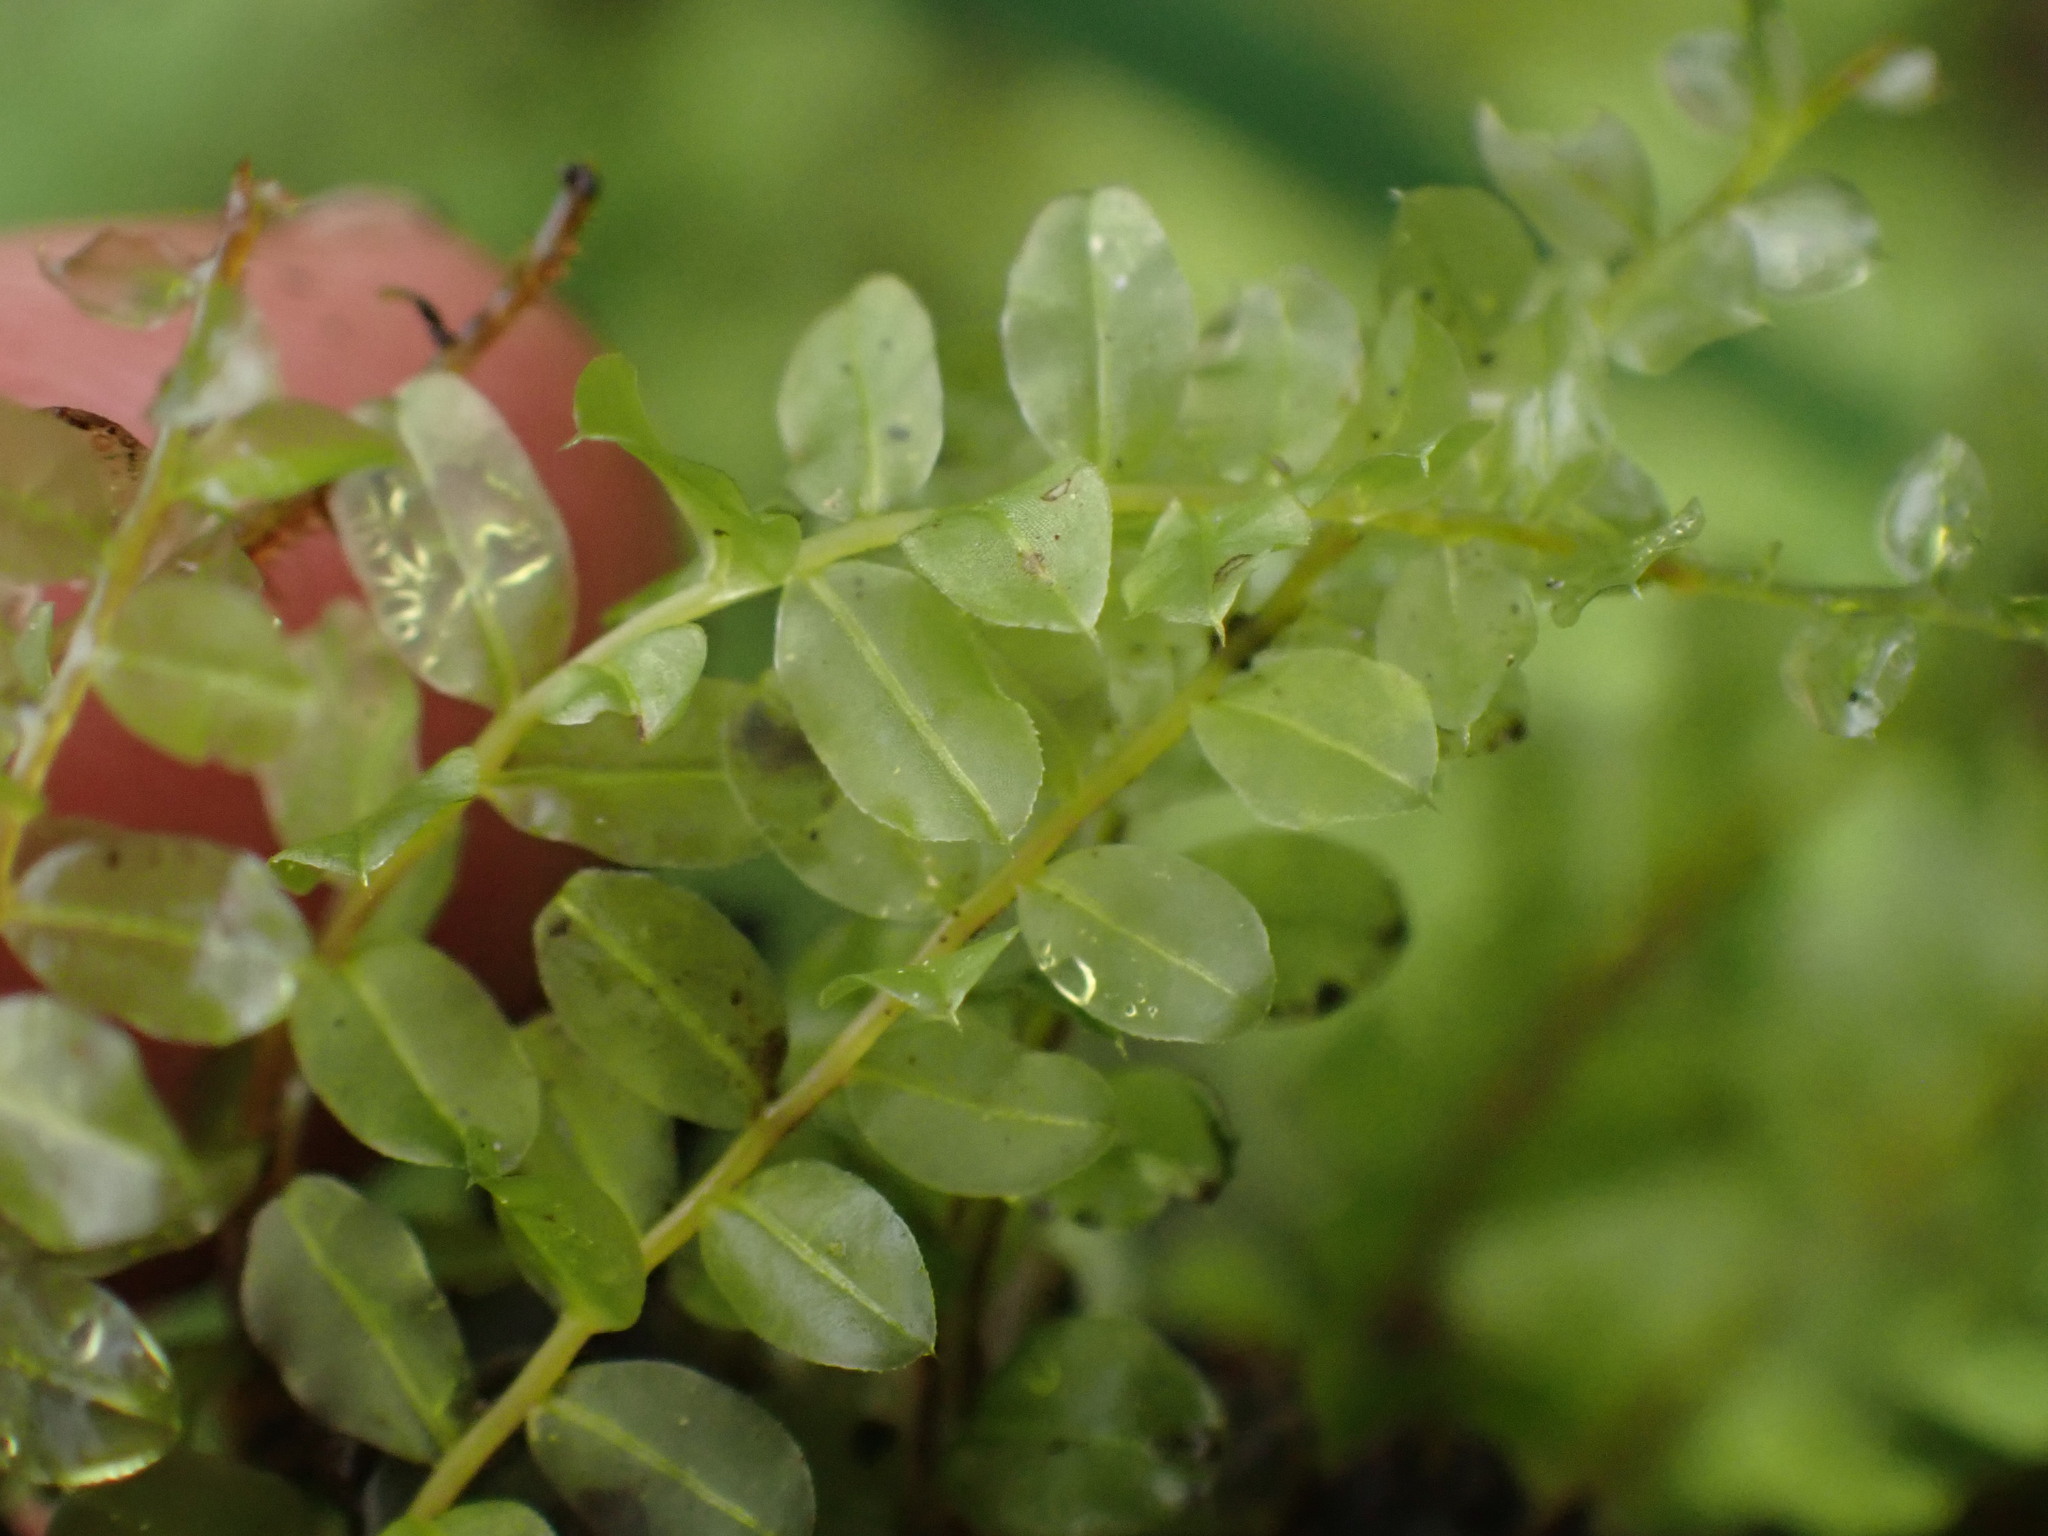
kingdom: Plantae
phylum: Bryophyta
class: Bryopsida
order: Bryales
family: Mniaceae
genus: Plagiomnium
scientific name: Plagiomnium ciliare
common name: Toothed leafy moss
